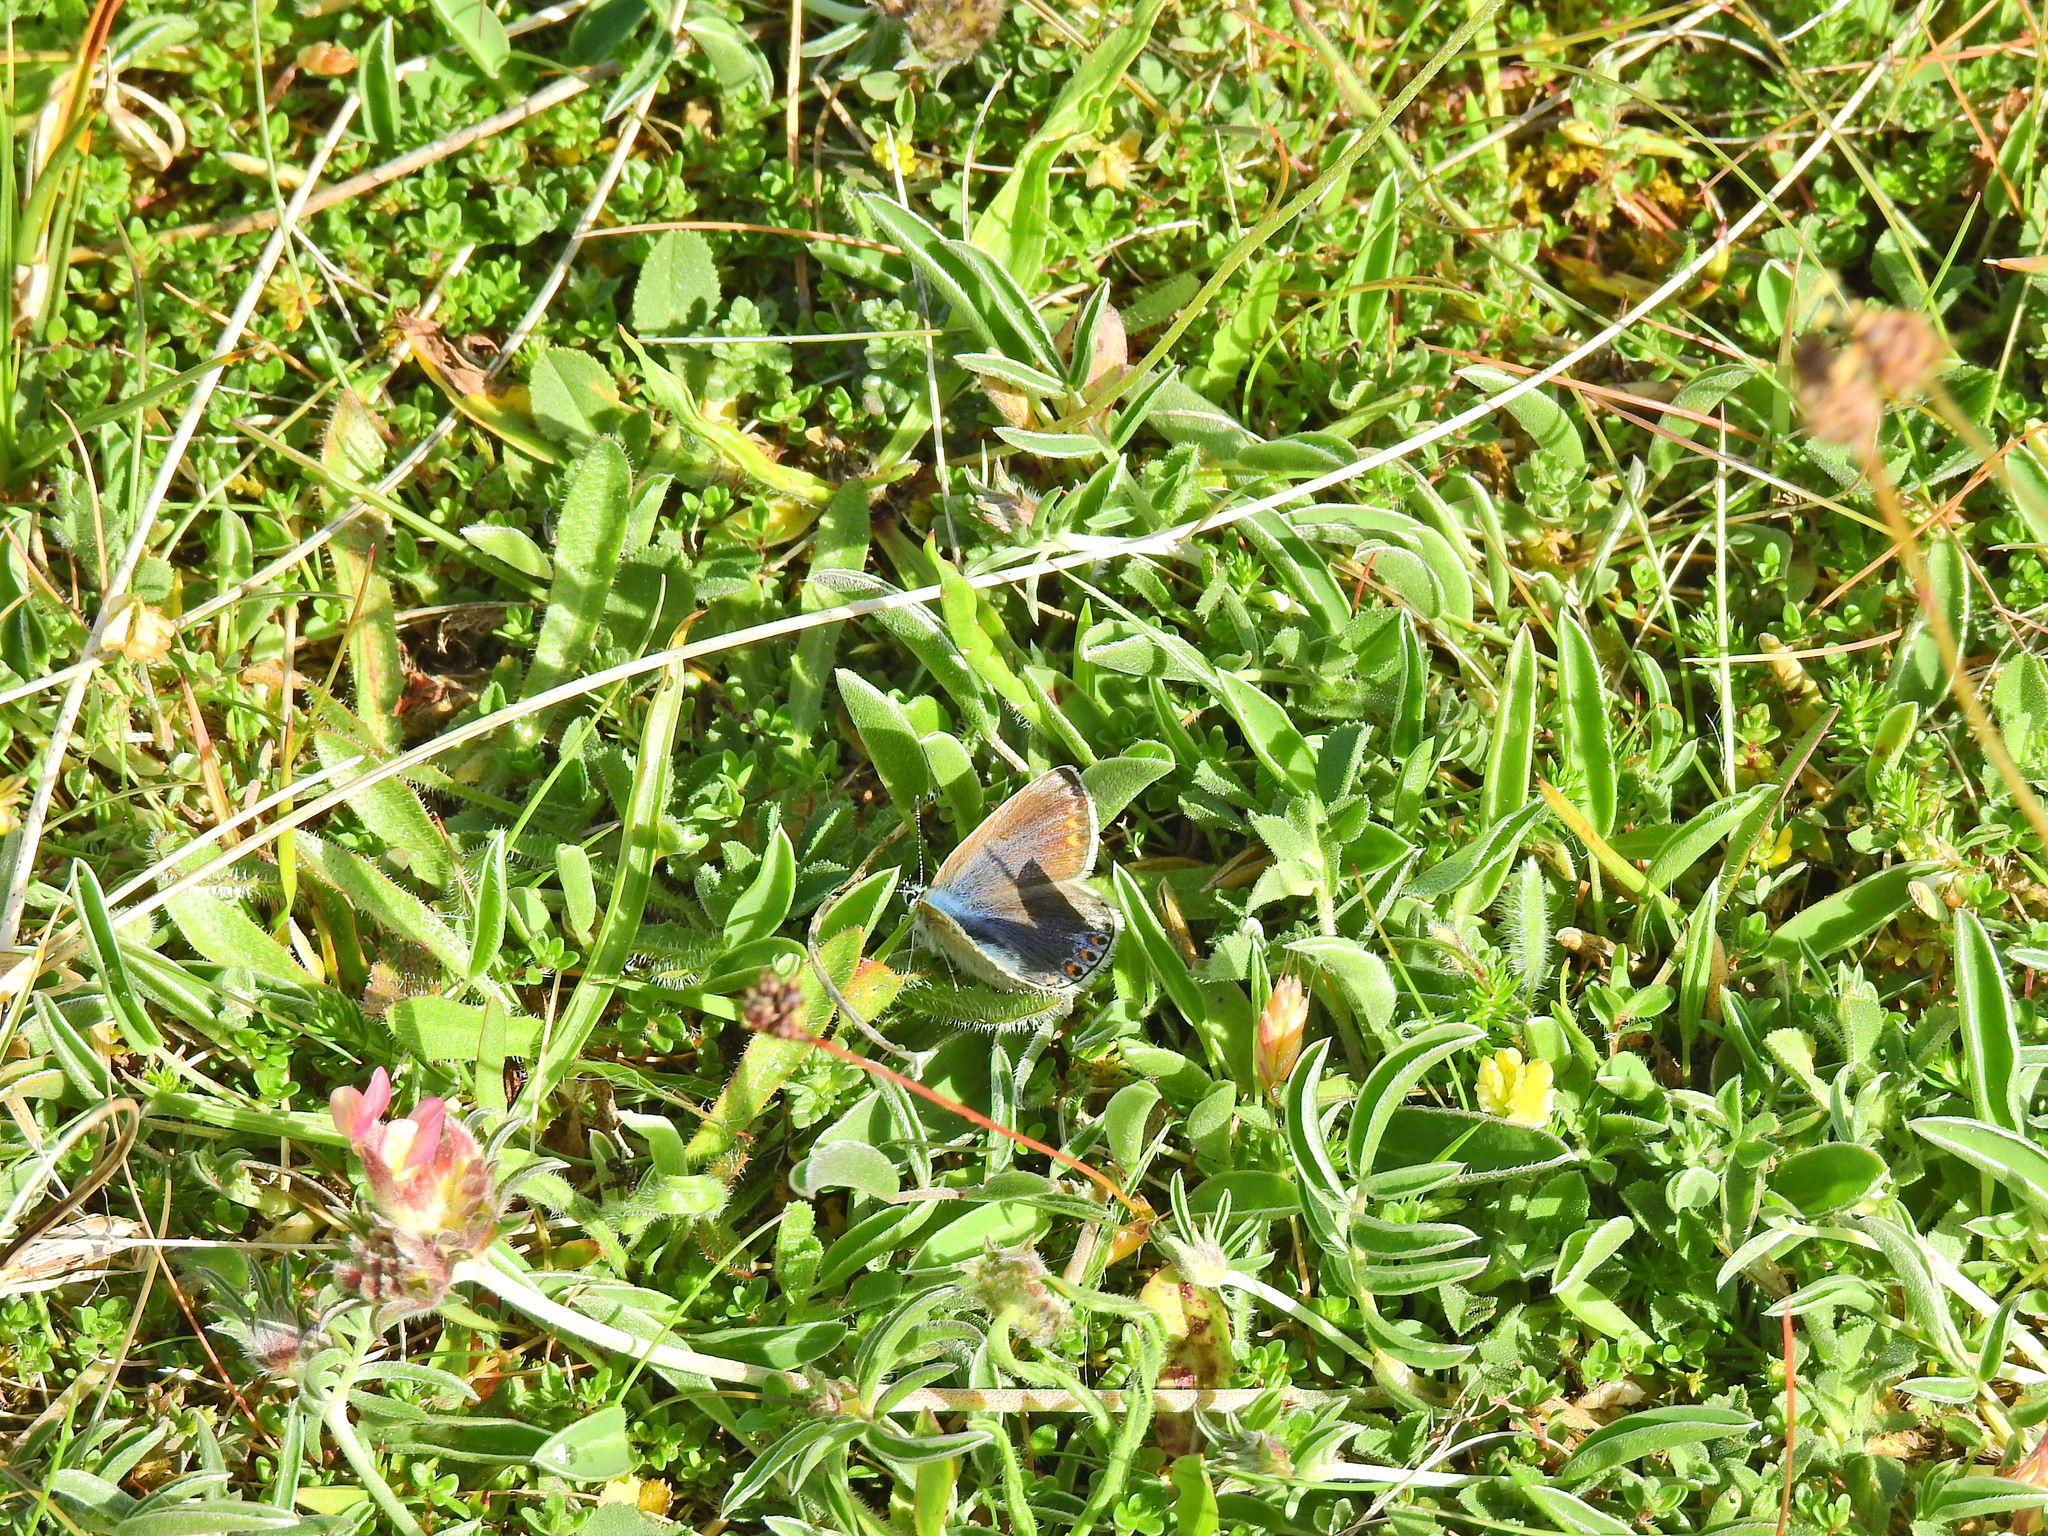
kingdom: Animalia
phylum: Arthropoda
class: Insecta
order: Lepidoptera
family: Lycaenidae
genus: Polyommatus
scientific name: Polyommatus icarus
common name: Common blue
